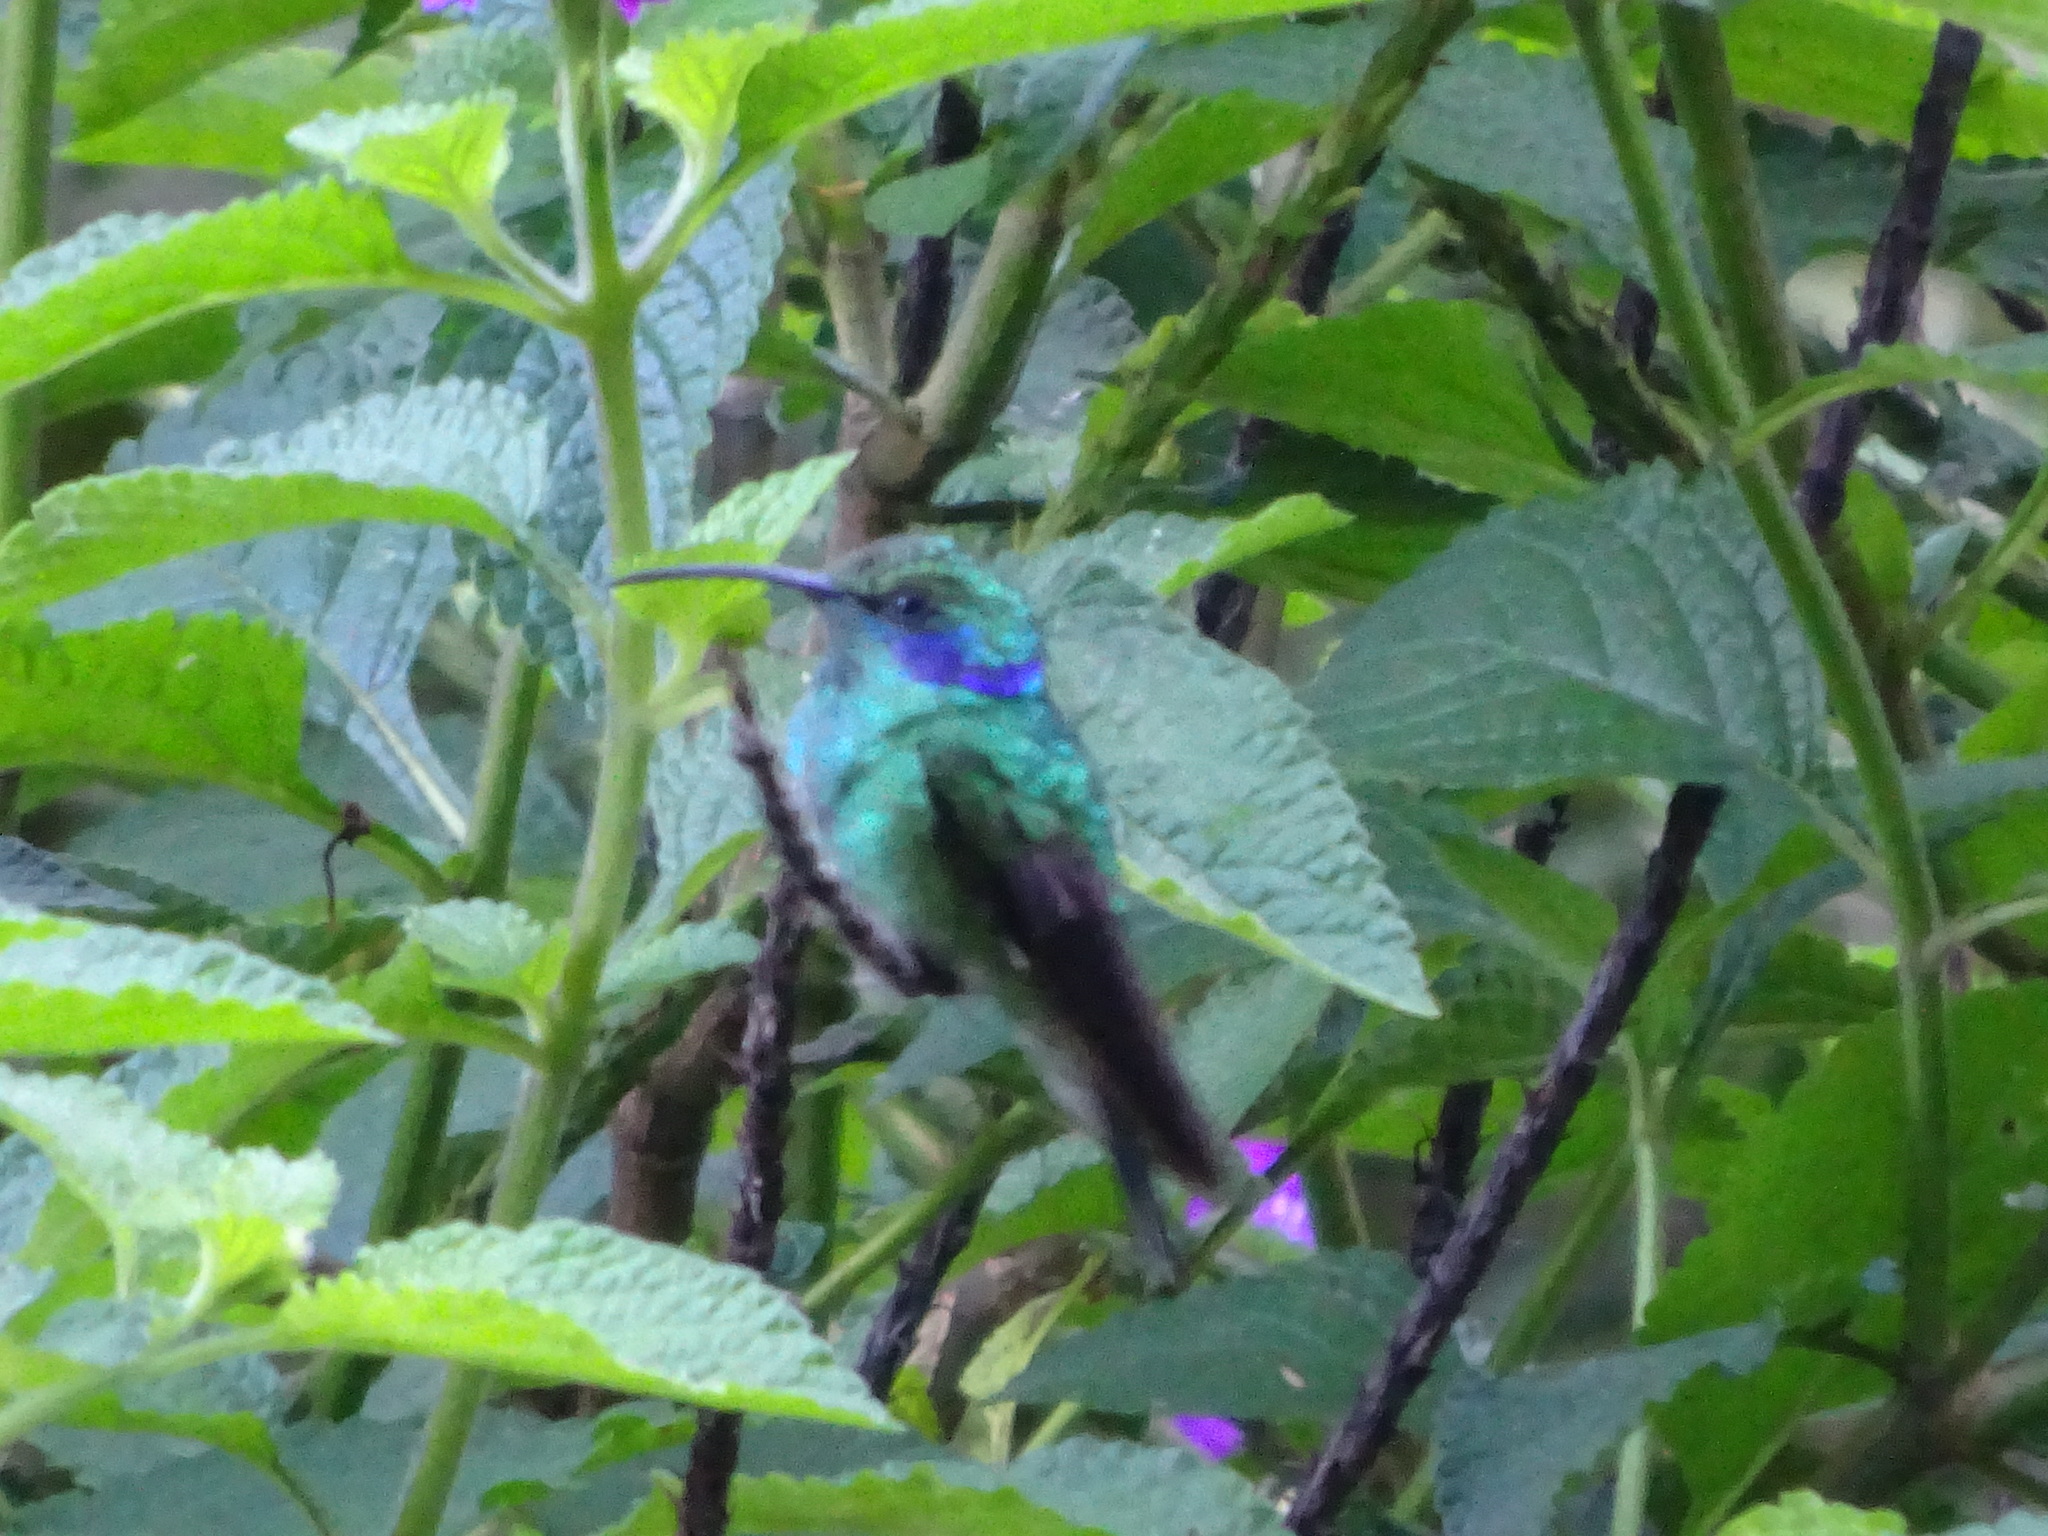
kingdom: Animalia
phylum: Chordata
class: Aves
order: Apodiformes
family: Trochilidae
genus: Colibri
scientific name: Colibri cyanotus
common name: Lesser violetear
